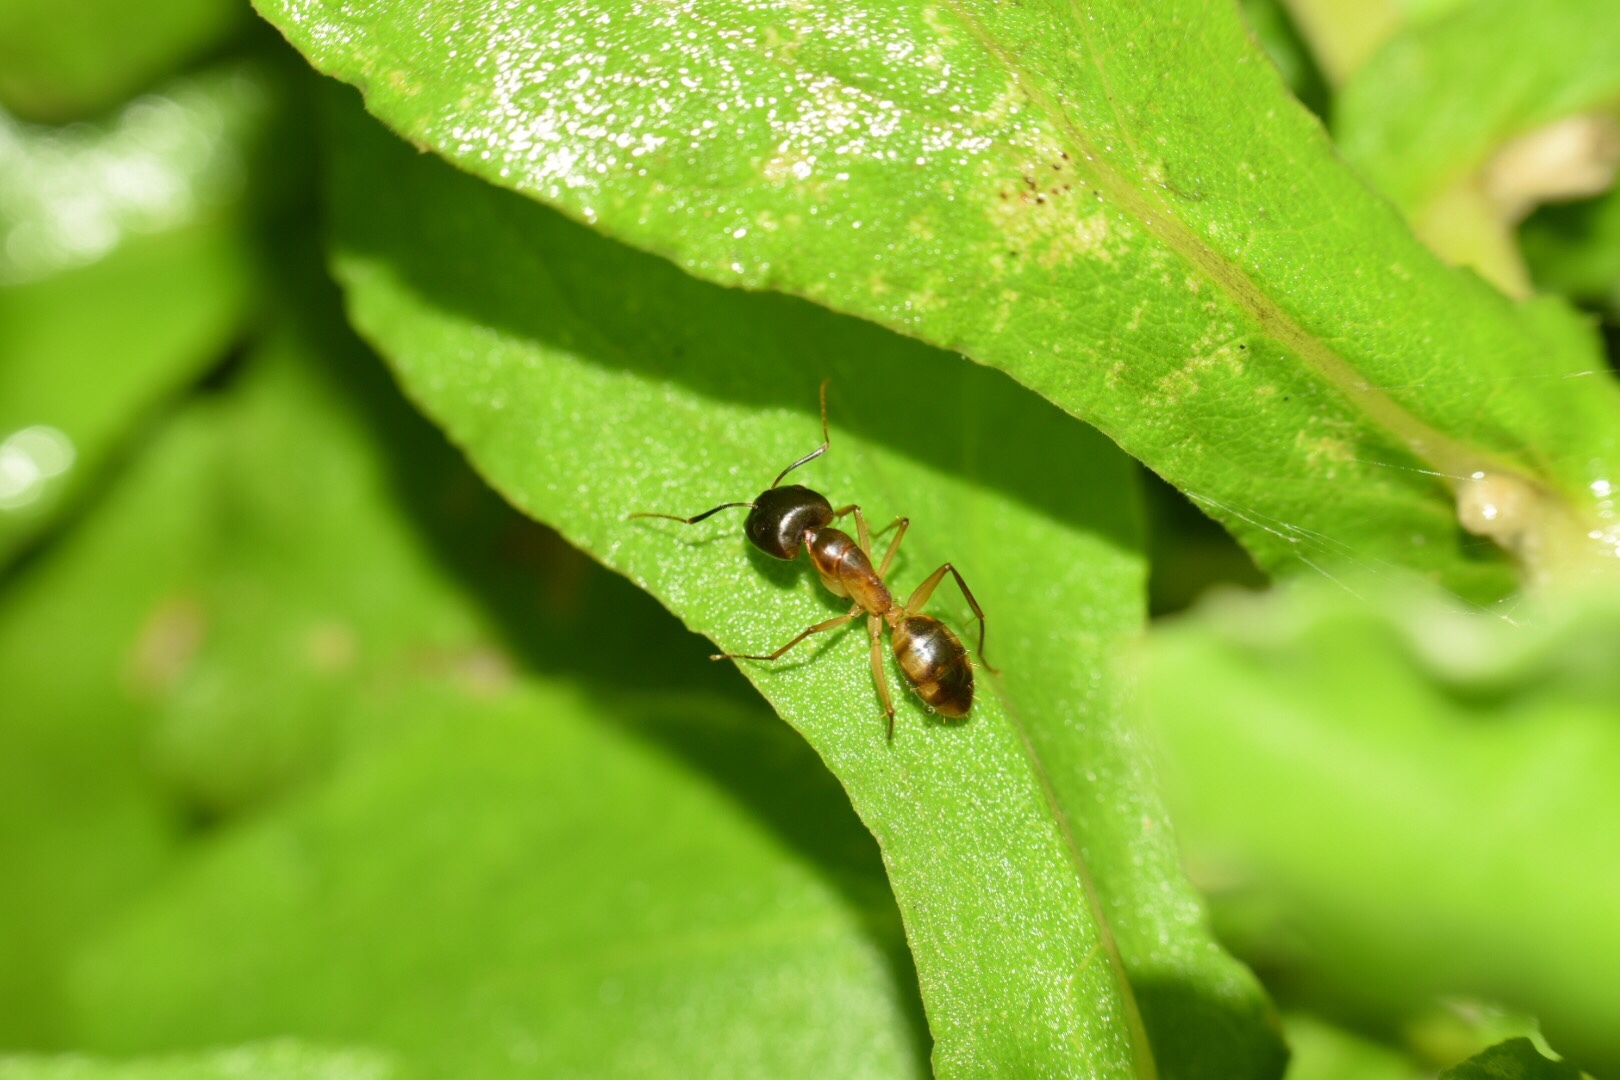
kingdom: Animalia
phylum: Arthropoda
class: Insecta
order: Hymenoptera
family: Formicidae
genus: Camponotus
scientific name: Camponotus maculatus
